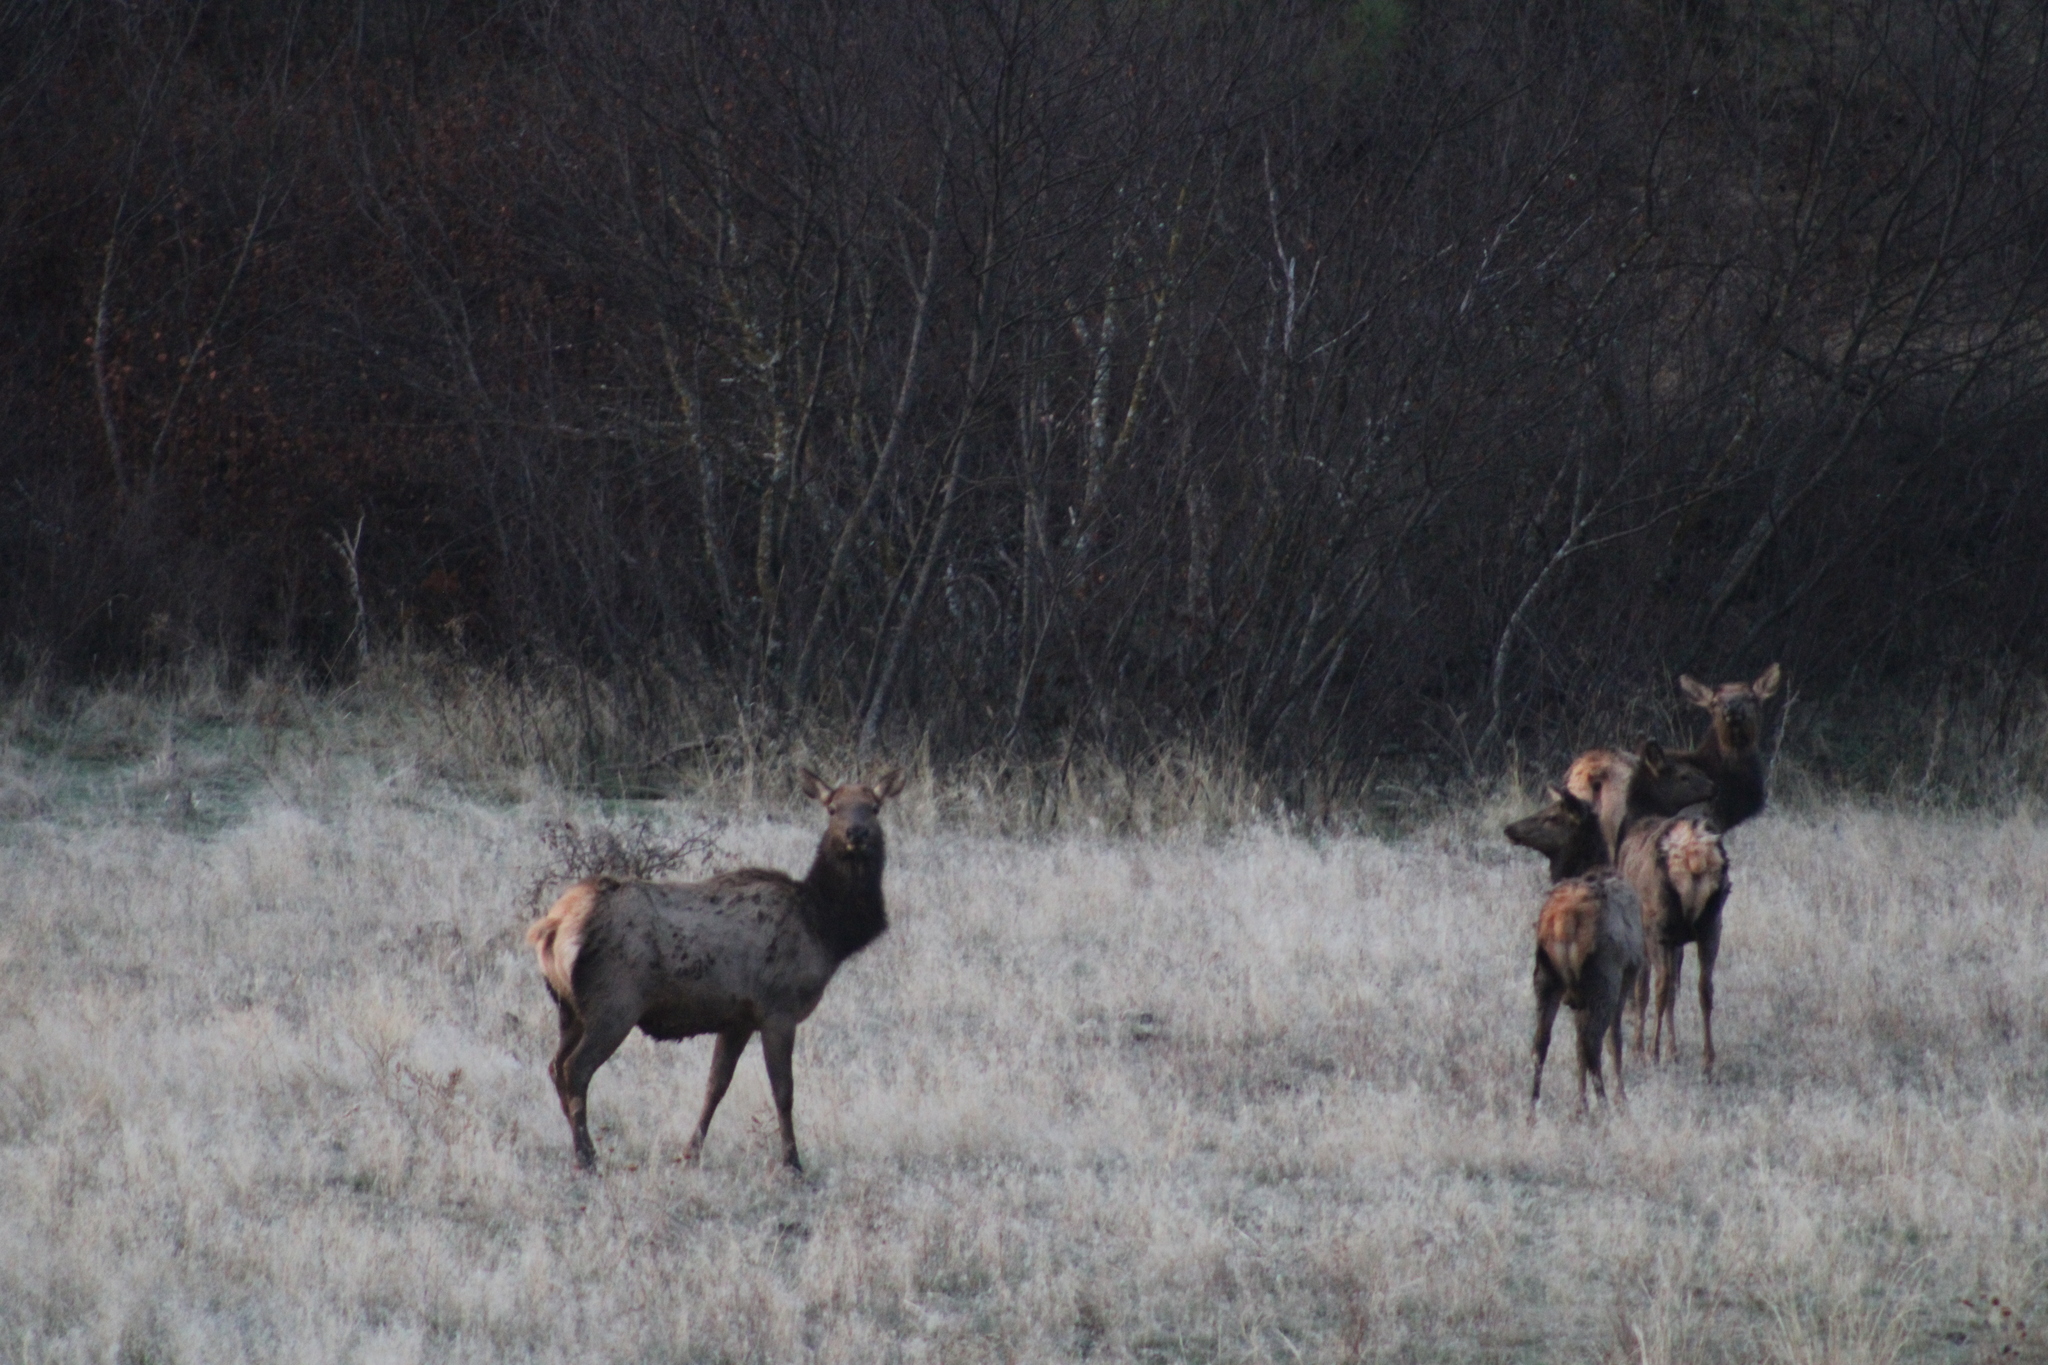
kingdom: Animalia
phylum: Chordata
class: Mammalia
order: Artiodactyla
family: Cervidae
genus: Cervus
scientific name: Cervus elaphus
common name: Red deer
